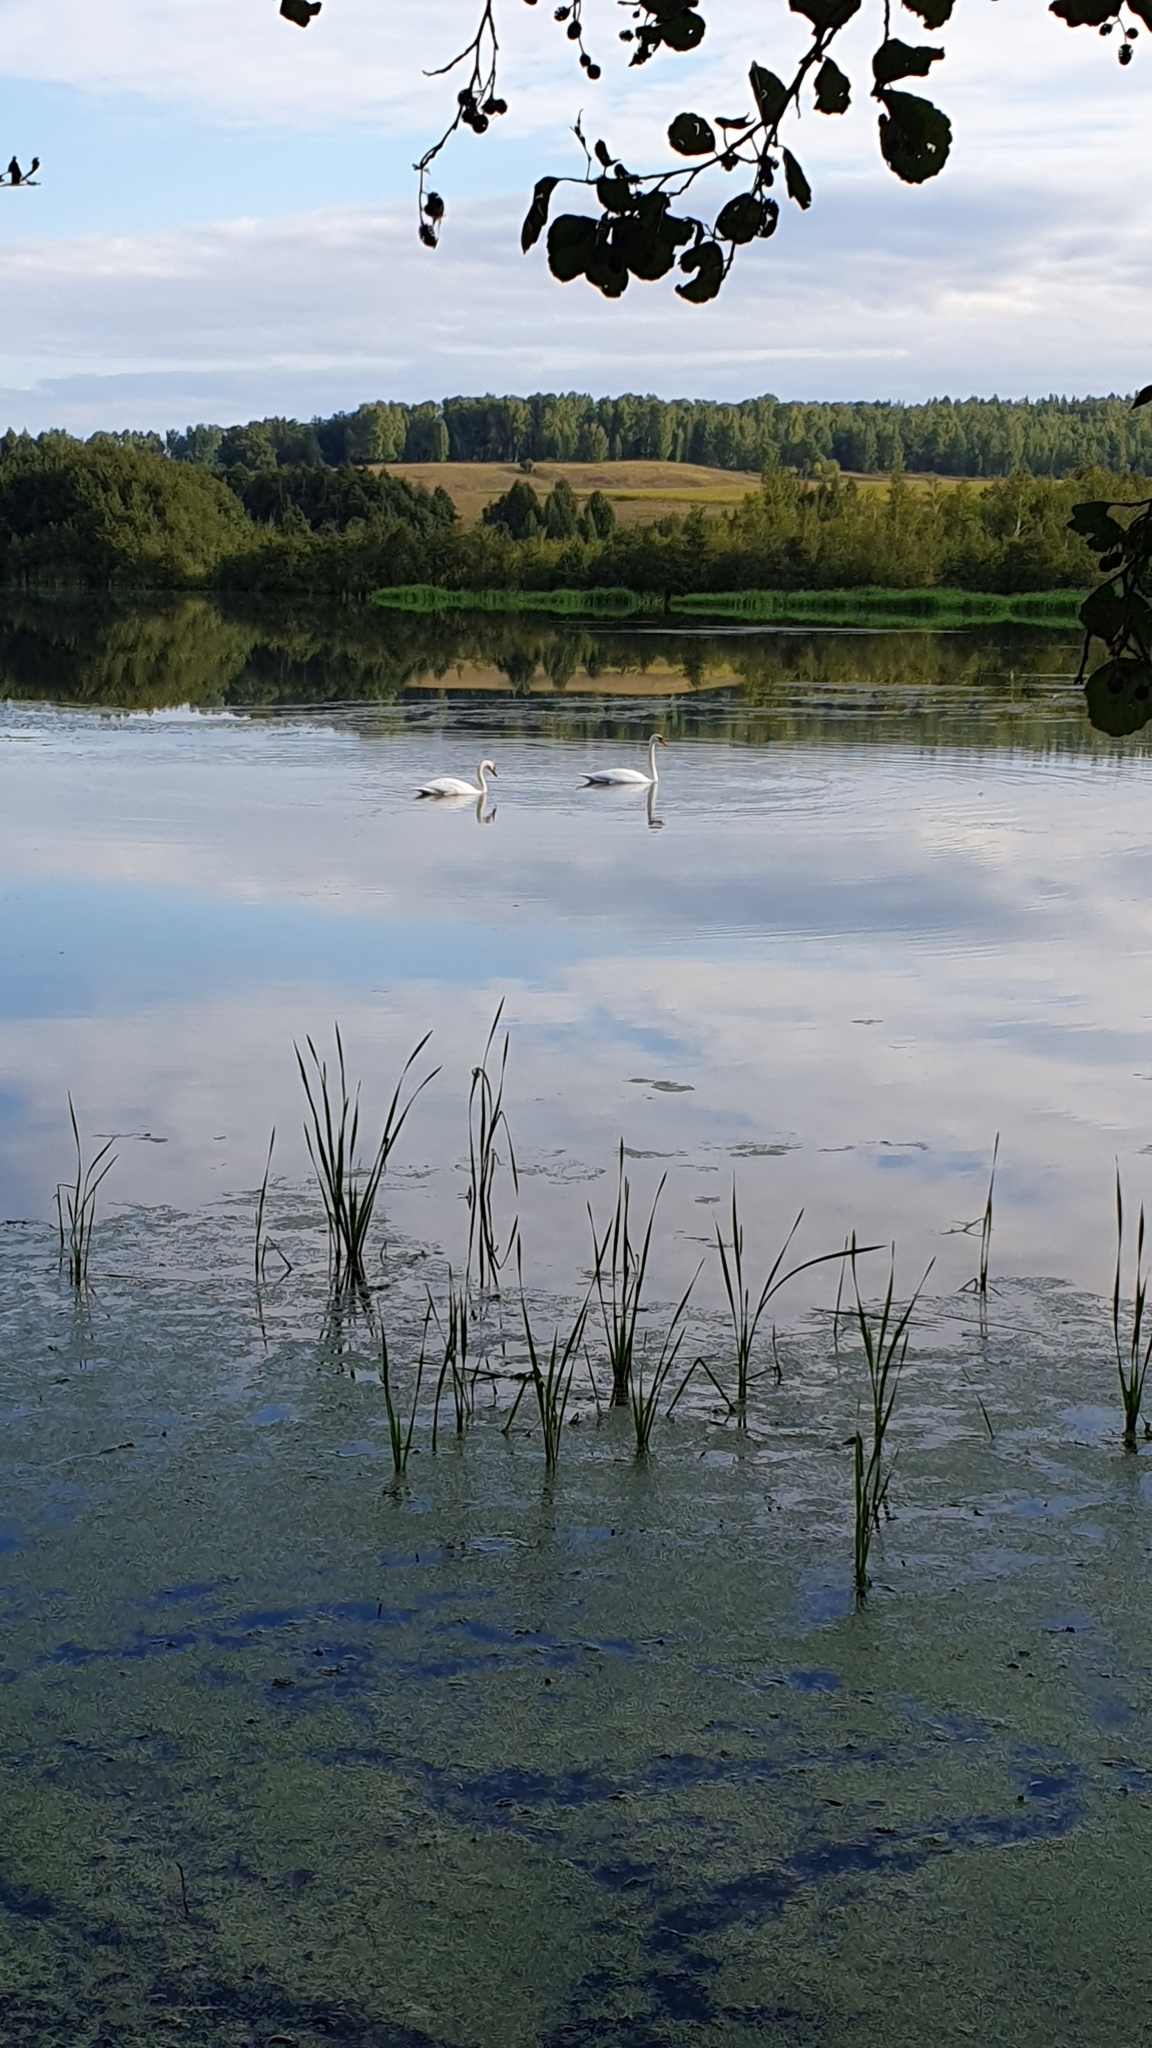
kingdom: Animalia
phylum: Chordata
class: Aves
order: Anseriformes
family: Anatidae
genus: Cygnus
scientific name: Cygnus olor
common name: Mute swan
